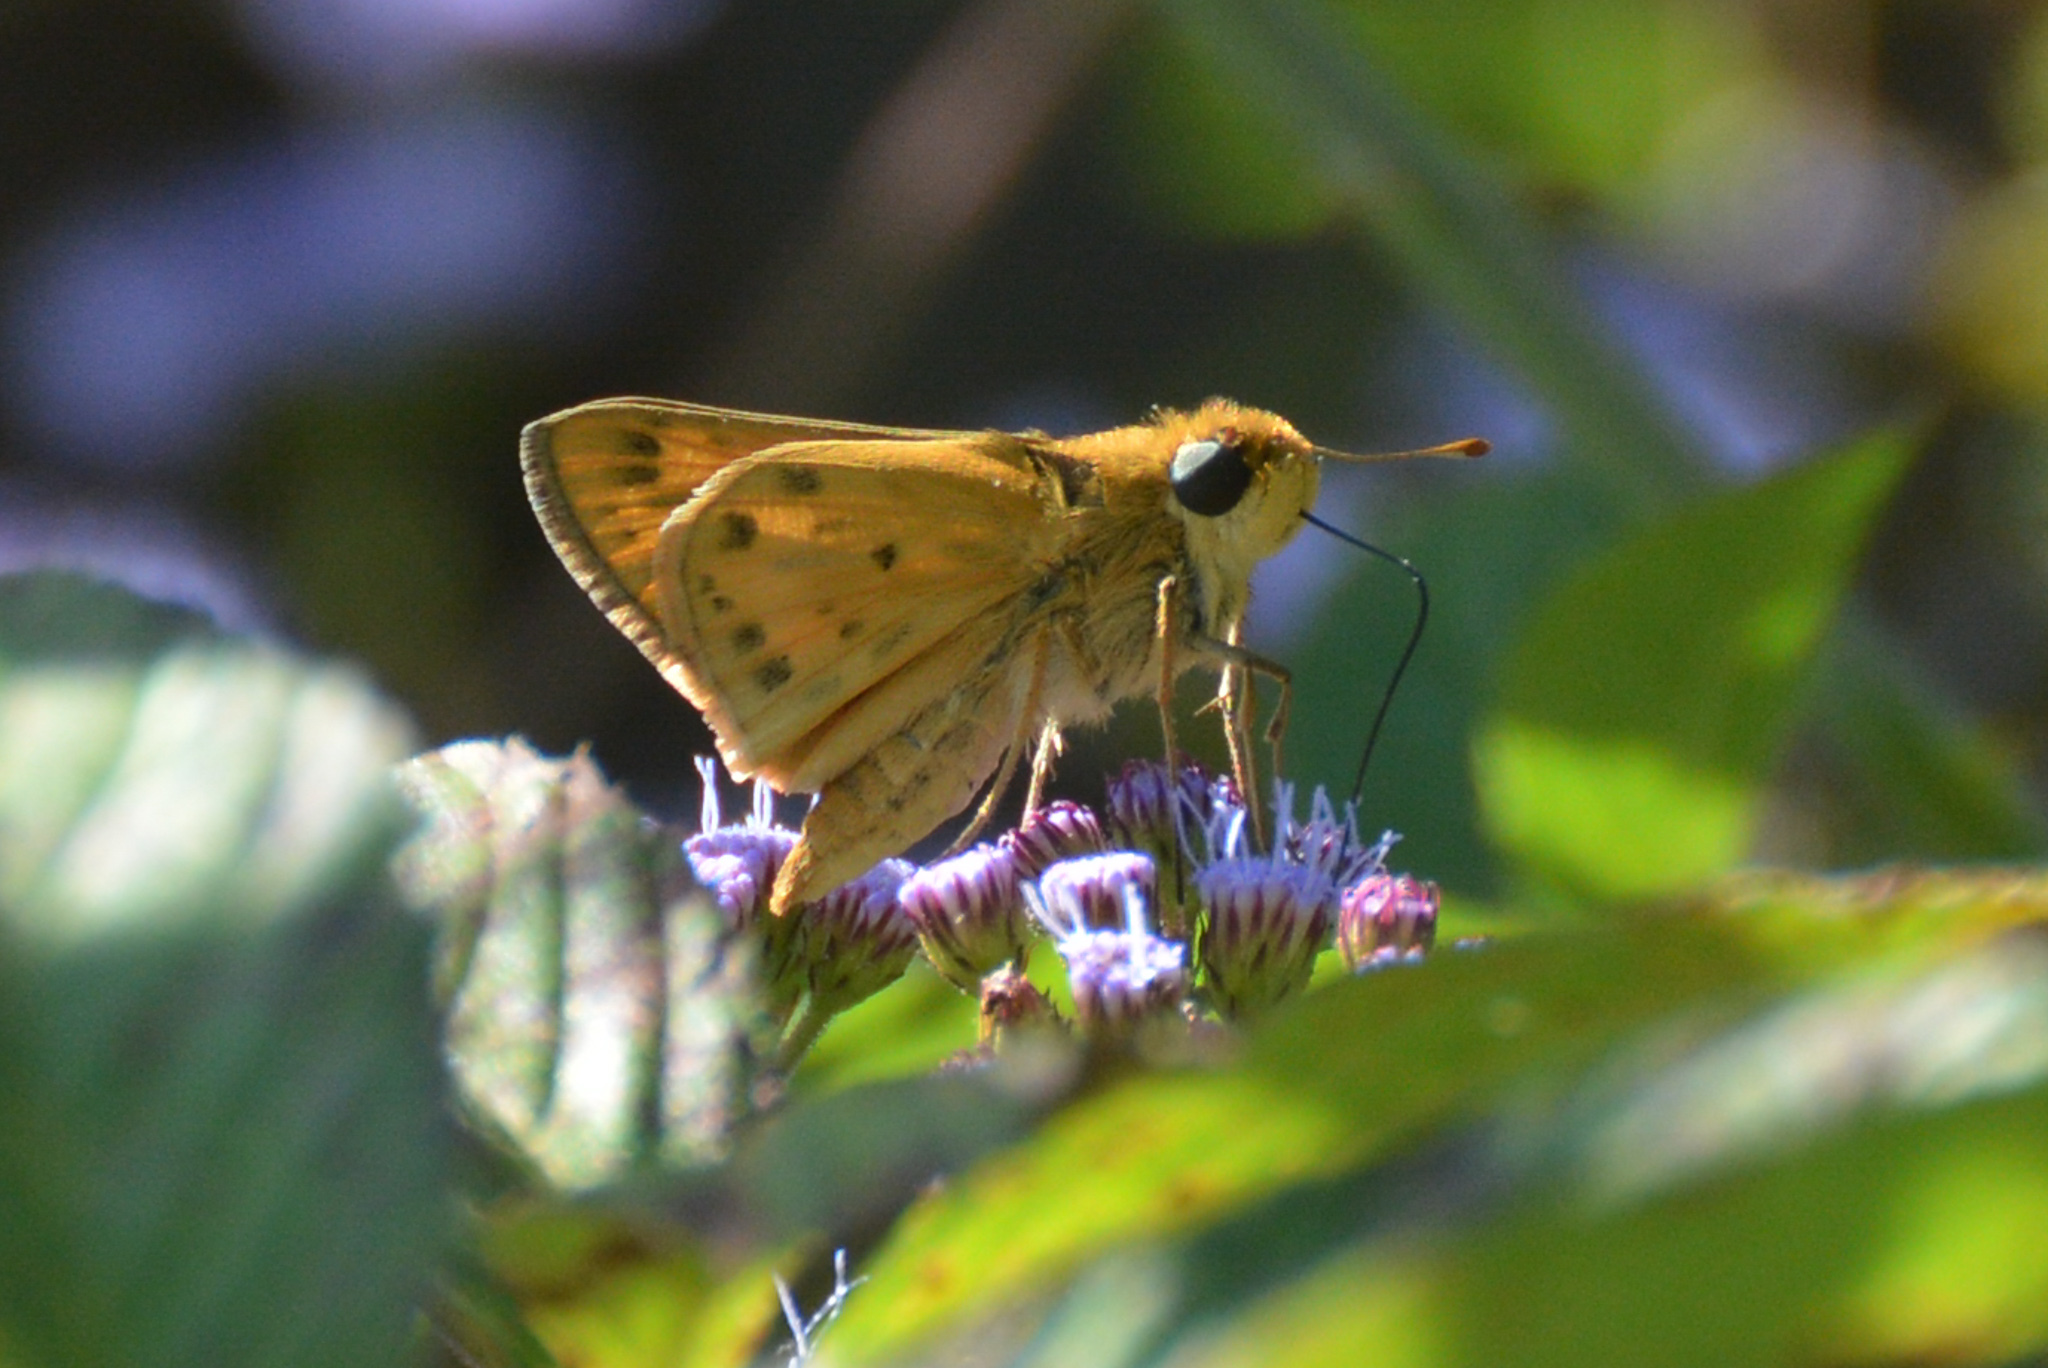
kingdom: Animalia
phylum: Arthropoda
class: Insecta
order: Lepidoptera
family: Hesperiidae
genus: Hylephila
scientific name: Hylephila phyleus
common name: Fiery skipper
